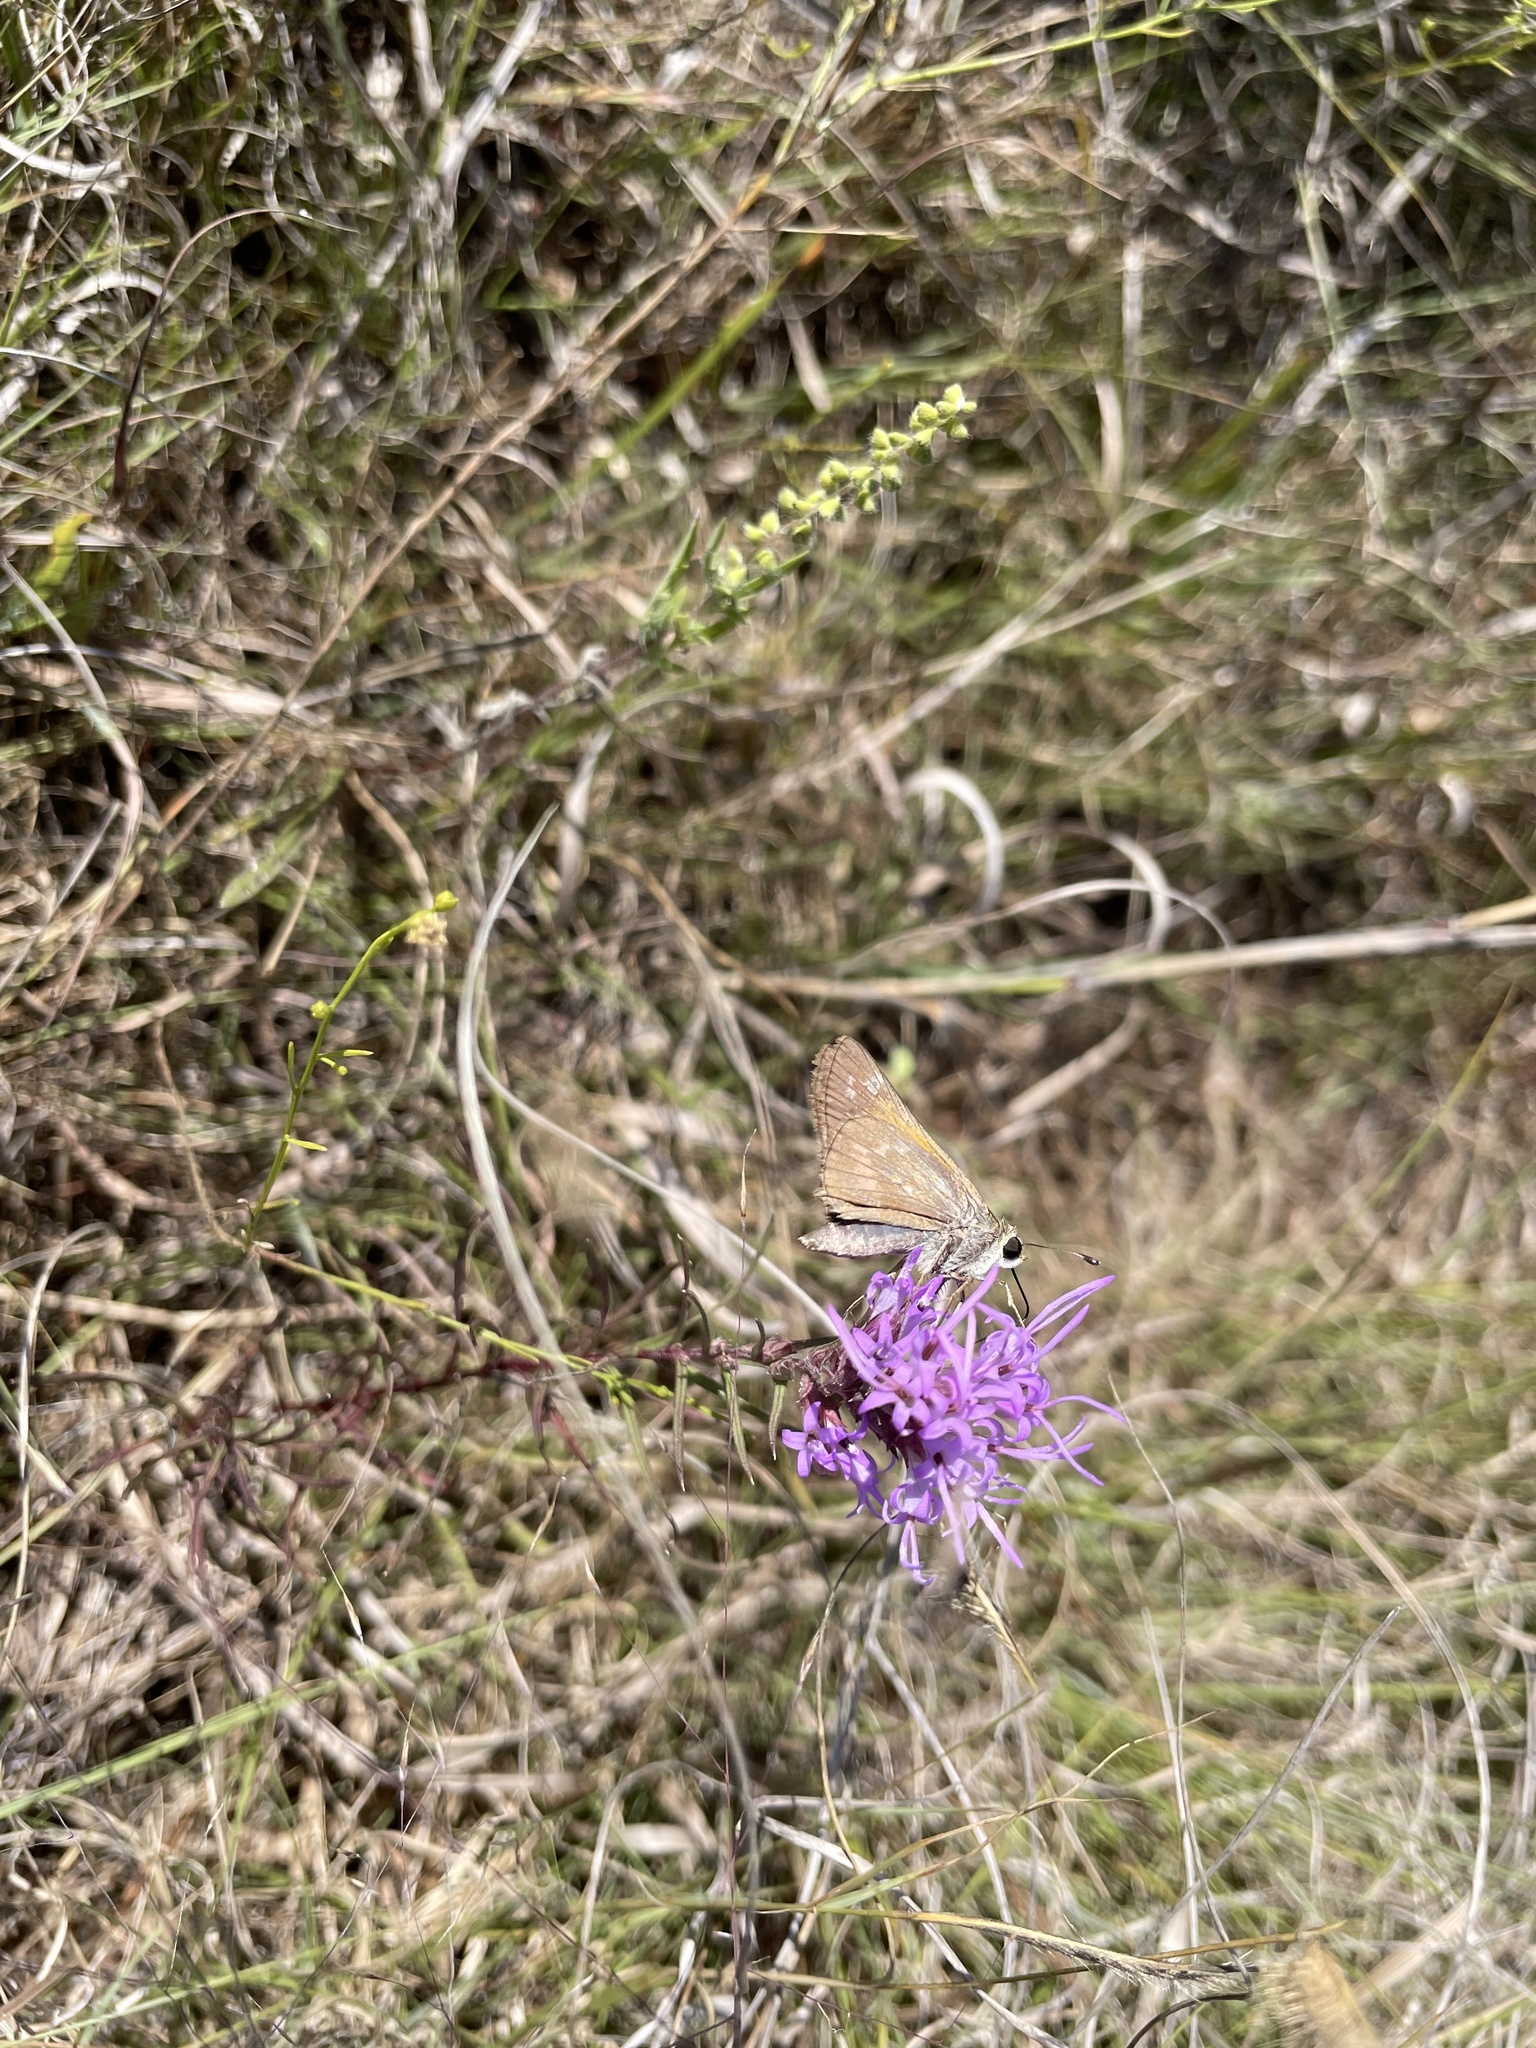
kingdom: Animalia
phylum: Arthropoda
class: Insecta
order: Lepidoptera
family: Hesperiidae
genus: Atalopedes
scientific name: Atalopedes
